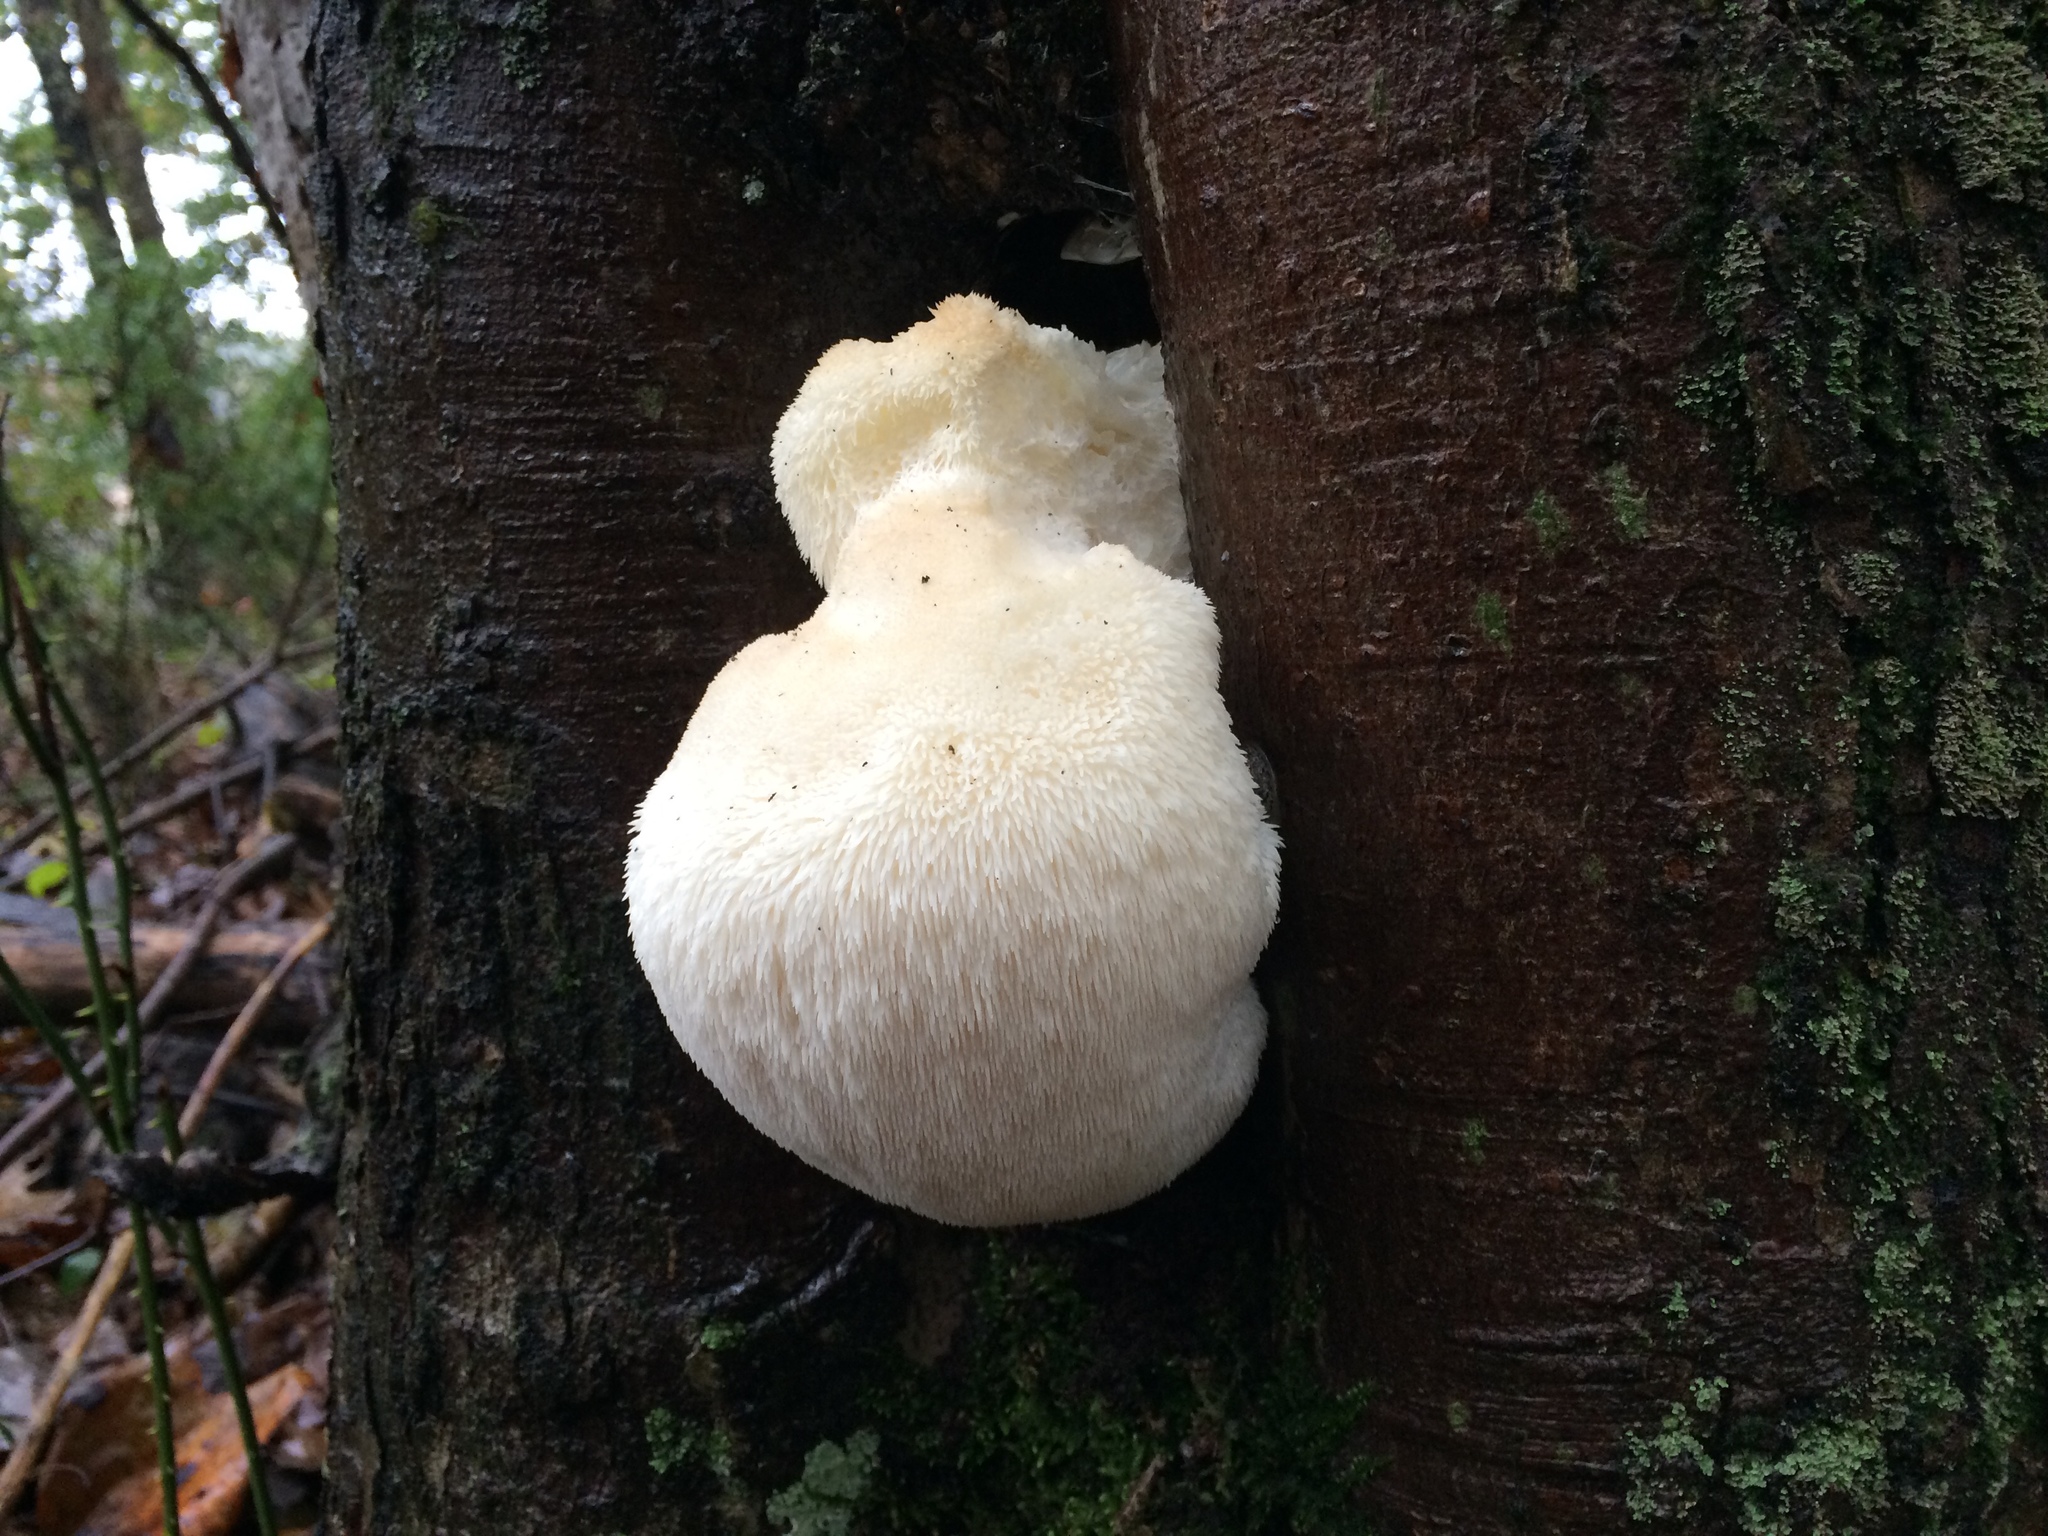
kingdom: Fungi
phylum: Basidiomycota
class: Agaricomycetes
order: Russulales
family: Hericiaceae
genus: Hericium
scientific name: Hericium erinaceus
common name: Bearded tooth
